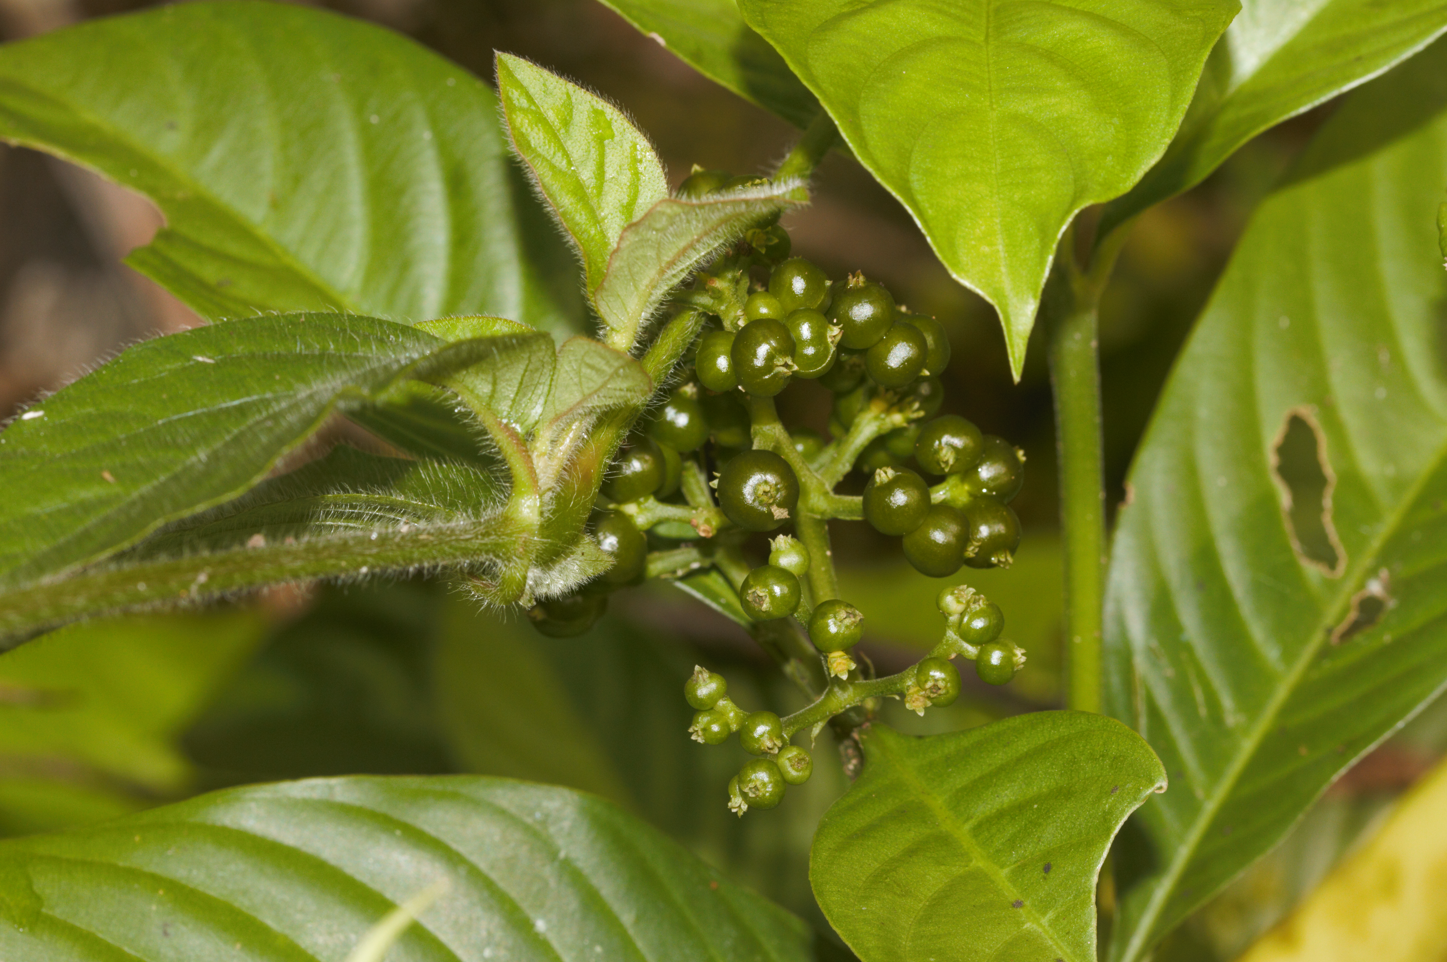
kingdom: Plantae
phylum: Tracheophyta
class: Magnoliopsida
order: Gentianales
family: Rubiaceae
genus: Palicourea
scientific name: Palicourea racemosa
